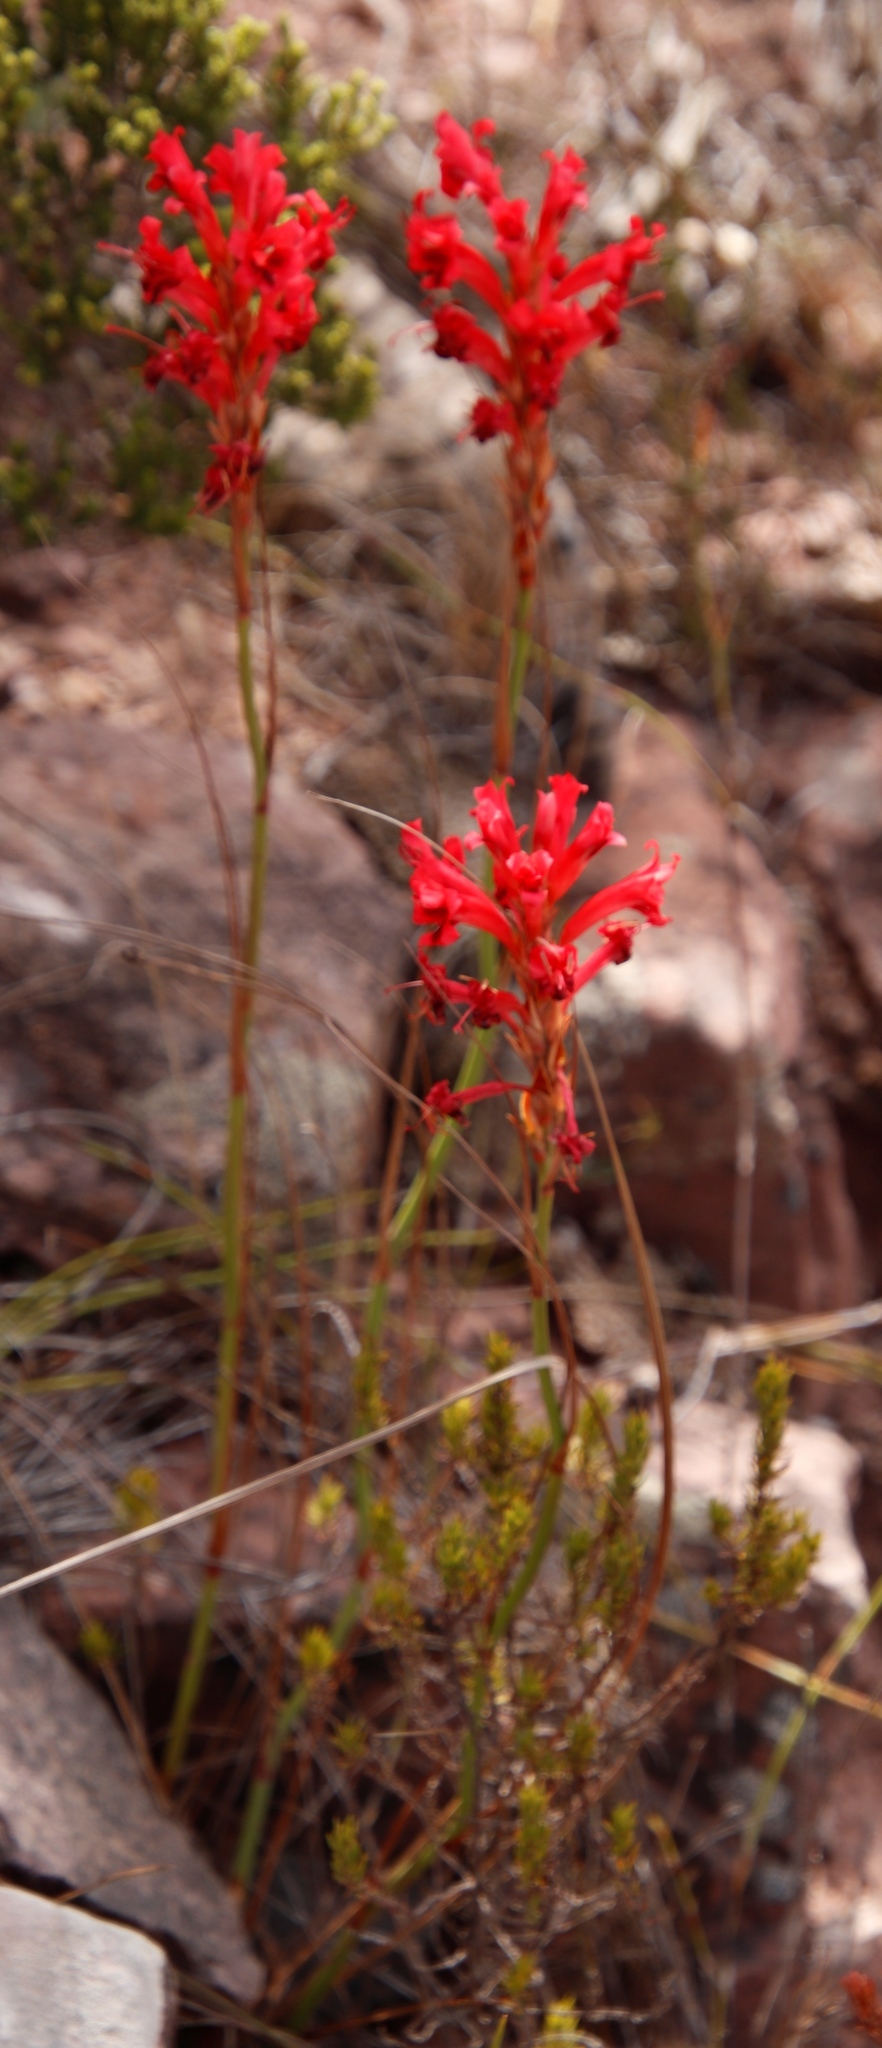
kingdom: Plantae
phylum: Tracheophyta
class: Liliopsida
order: Asparagales
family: Iridaceae
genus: Tritoniopsis
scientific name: Tritoniopsis triticea
